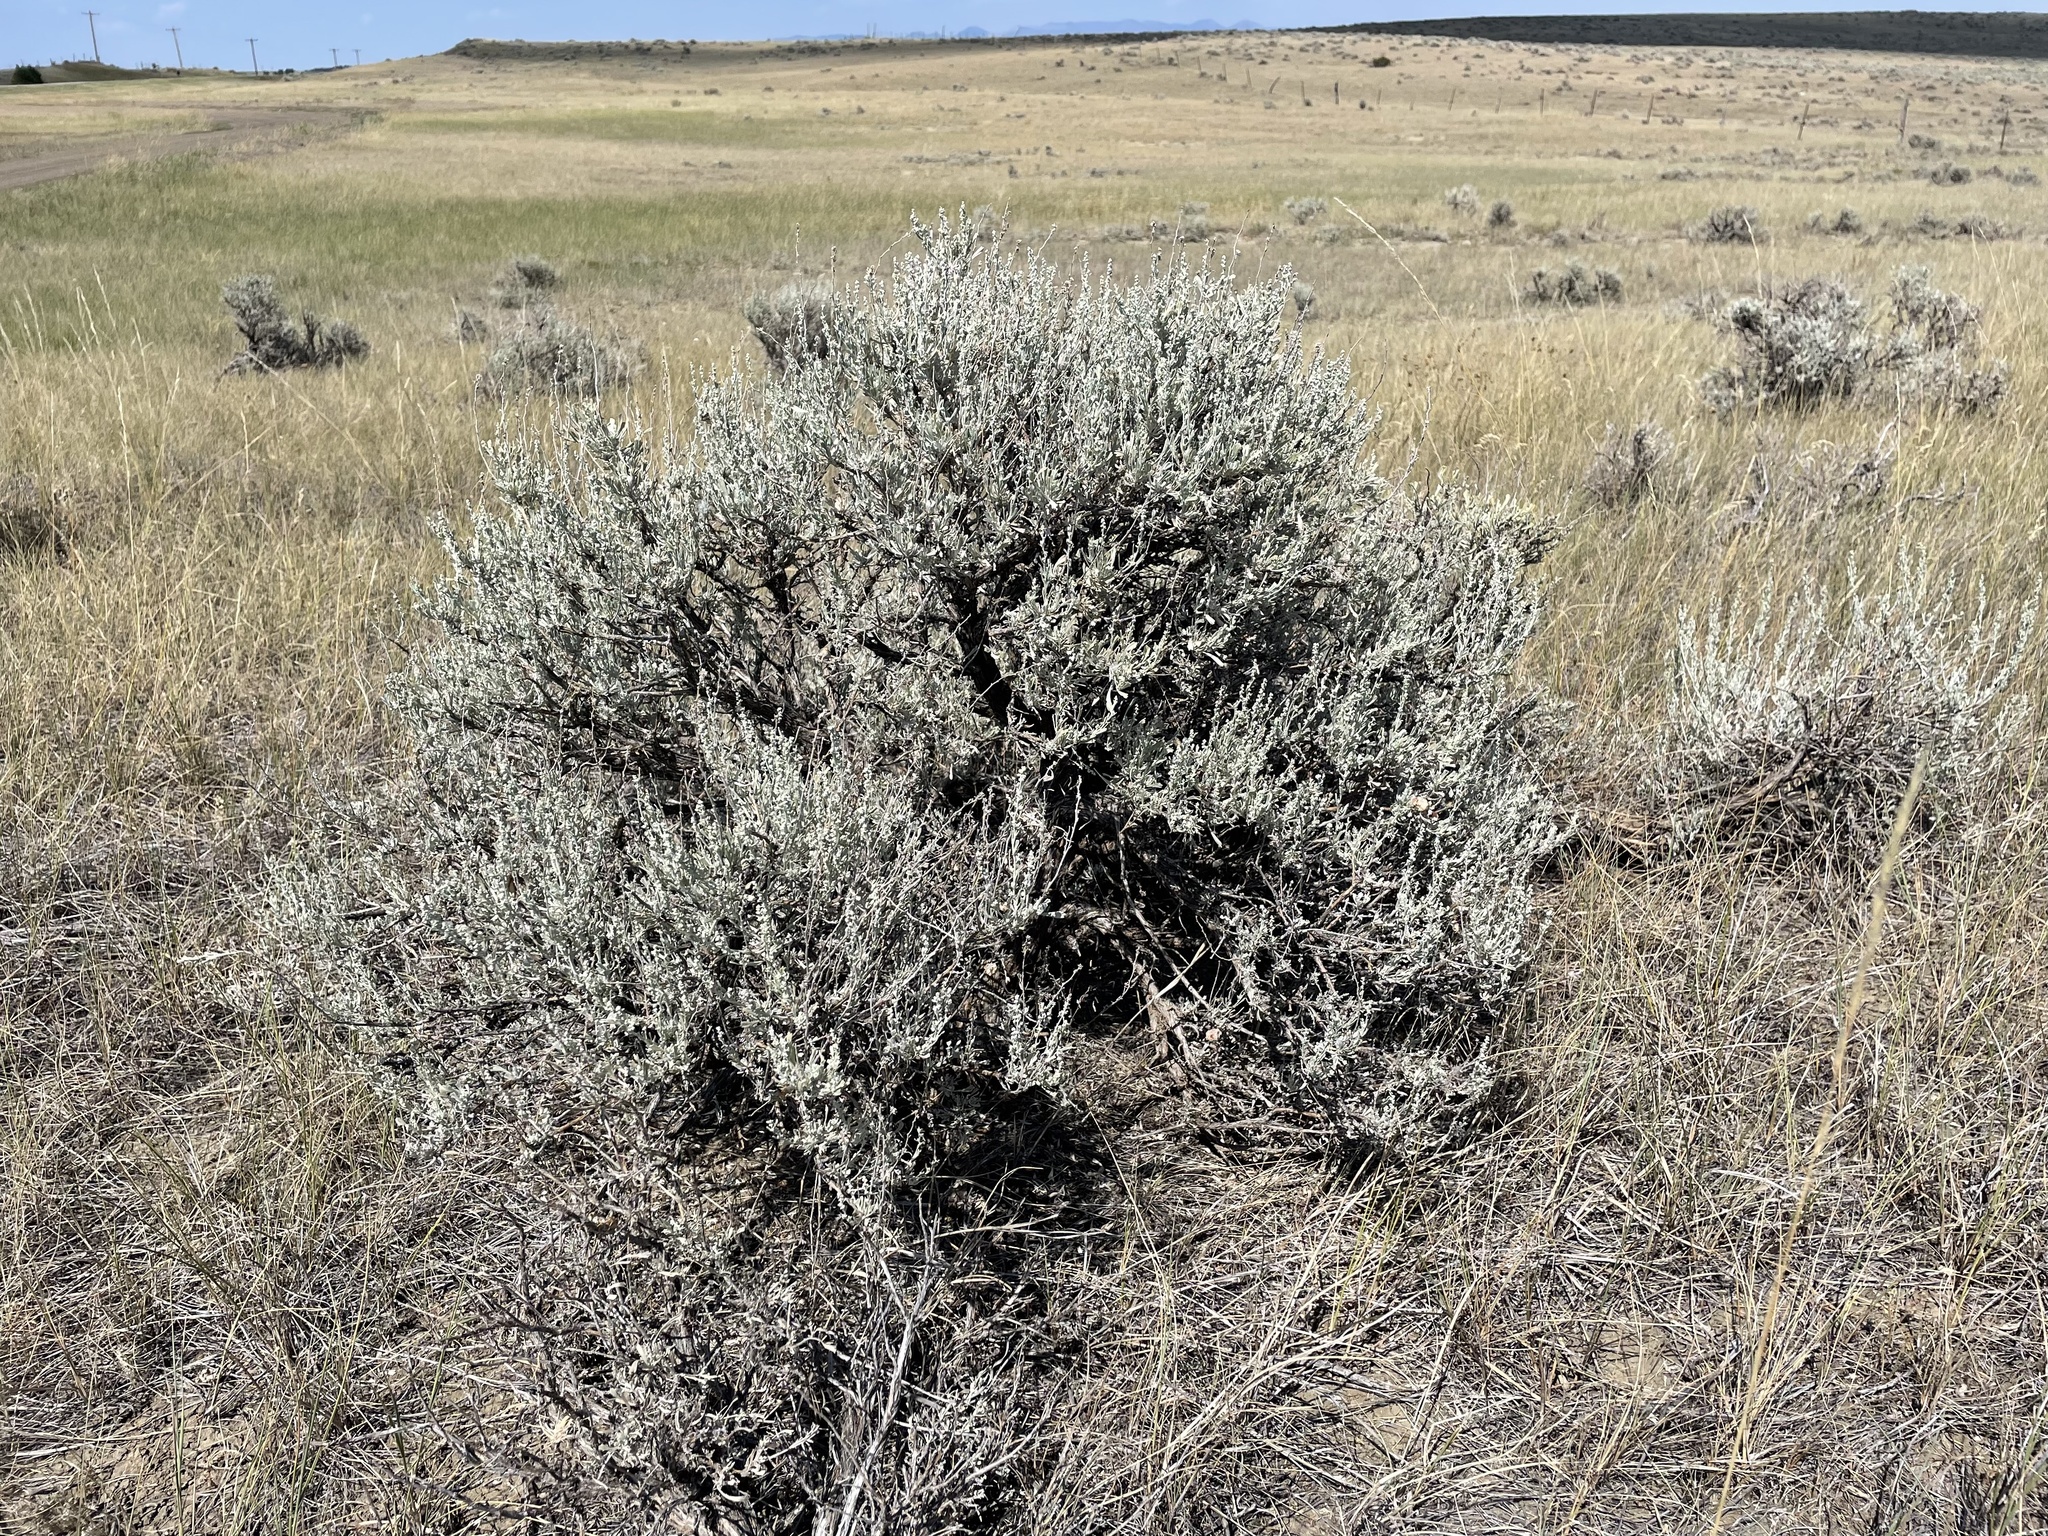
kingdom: Plantae
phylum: Tracheophyta
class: Magnoliopsida
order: Asterales
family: Asteraceae
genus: Artemisia
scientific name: Artemisia tridentata
